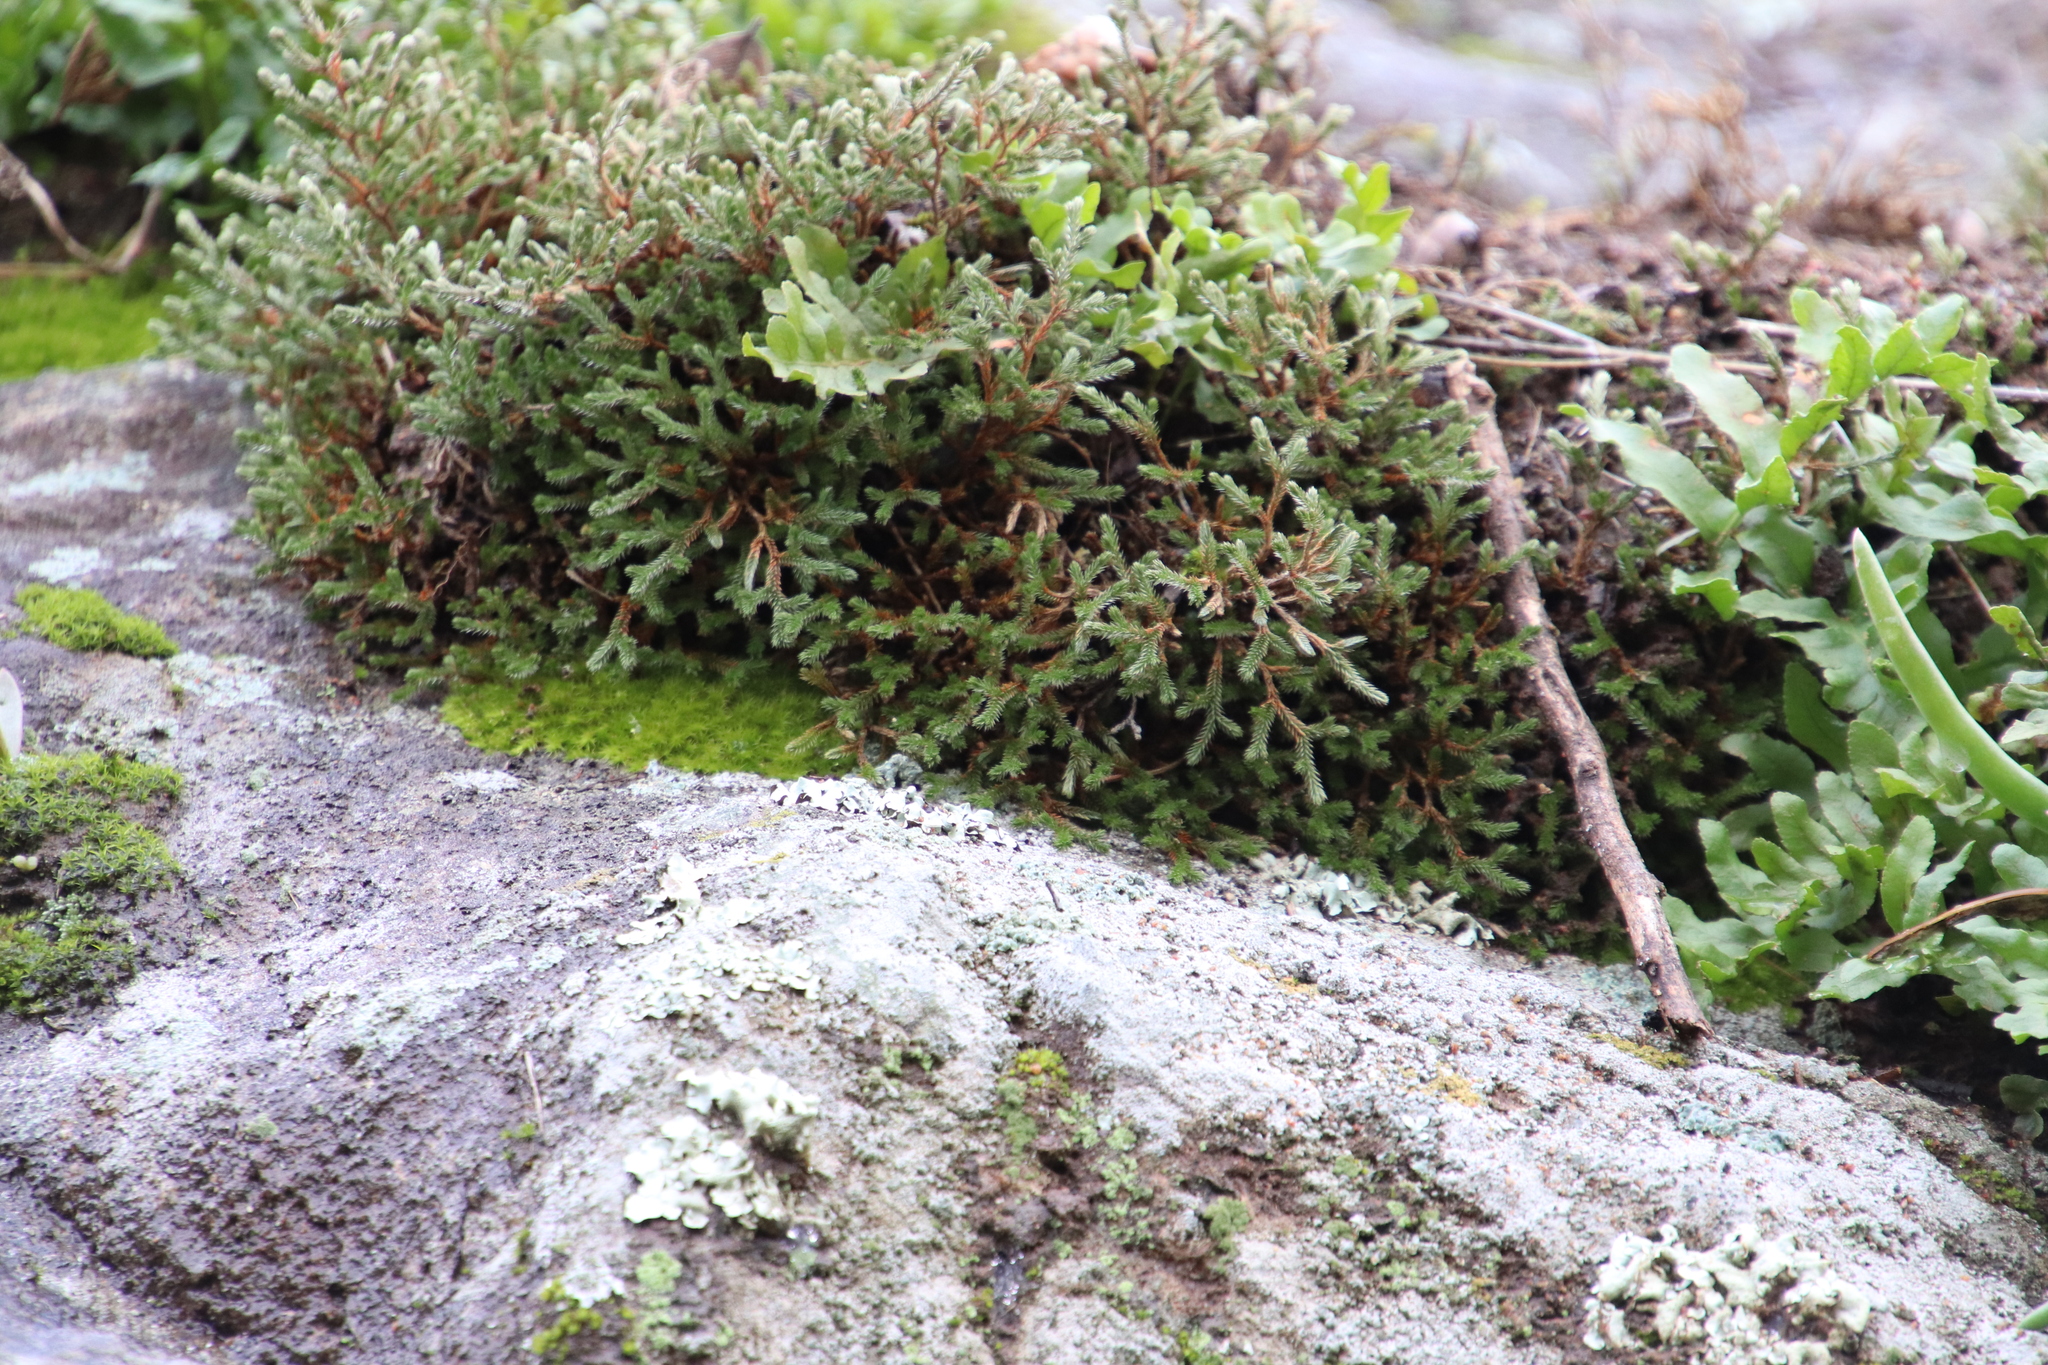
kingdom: Plantae
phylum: Tracheophyta
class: Lycopodiopsida
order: Selaginellales
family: Selaginellaceae
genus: Selaginella
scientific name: Selaginella bigelovii
